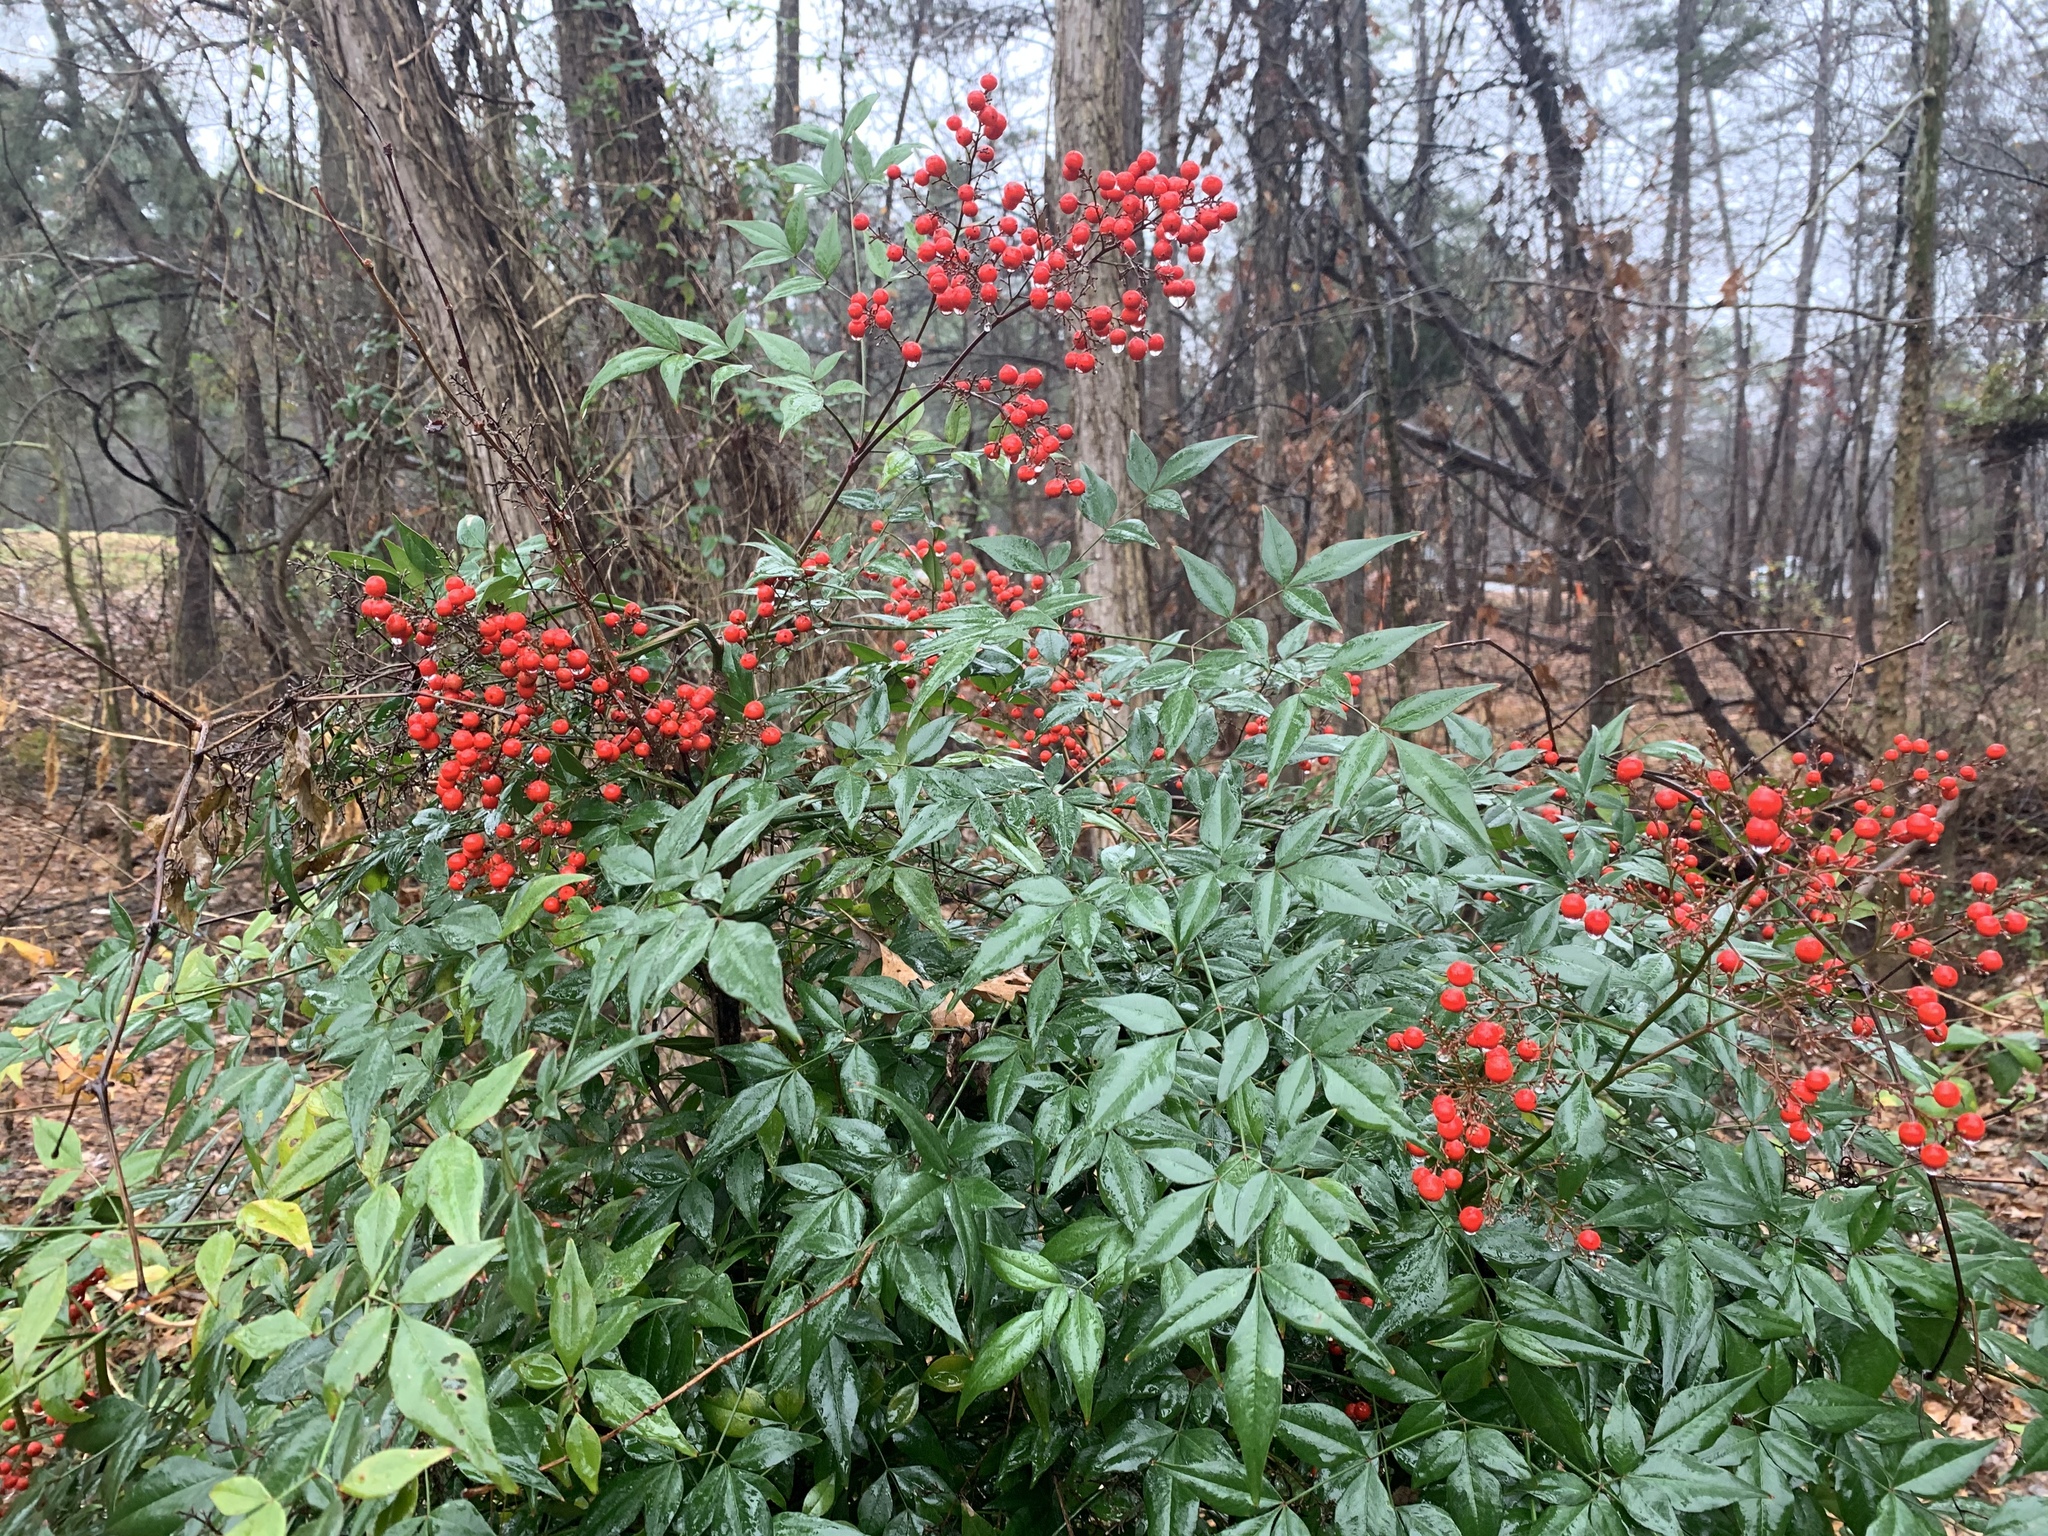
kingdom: Plantae
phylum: Tracheophyta
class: Magnoliopsida
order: Ranunculales
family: Berberidaceae
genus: Nandina
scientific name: Nandina domestica
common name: Sacred bamboo
